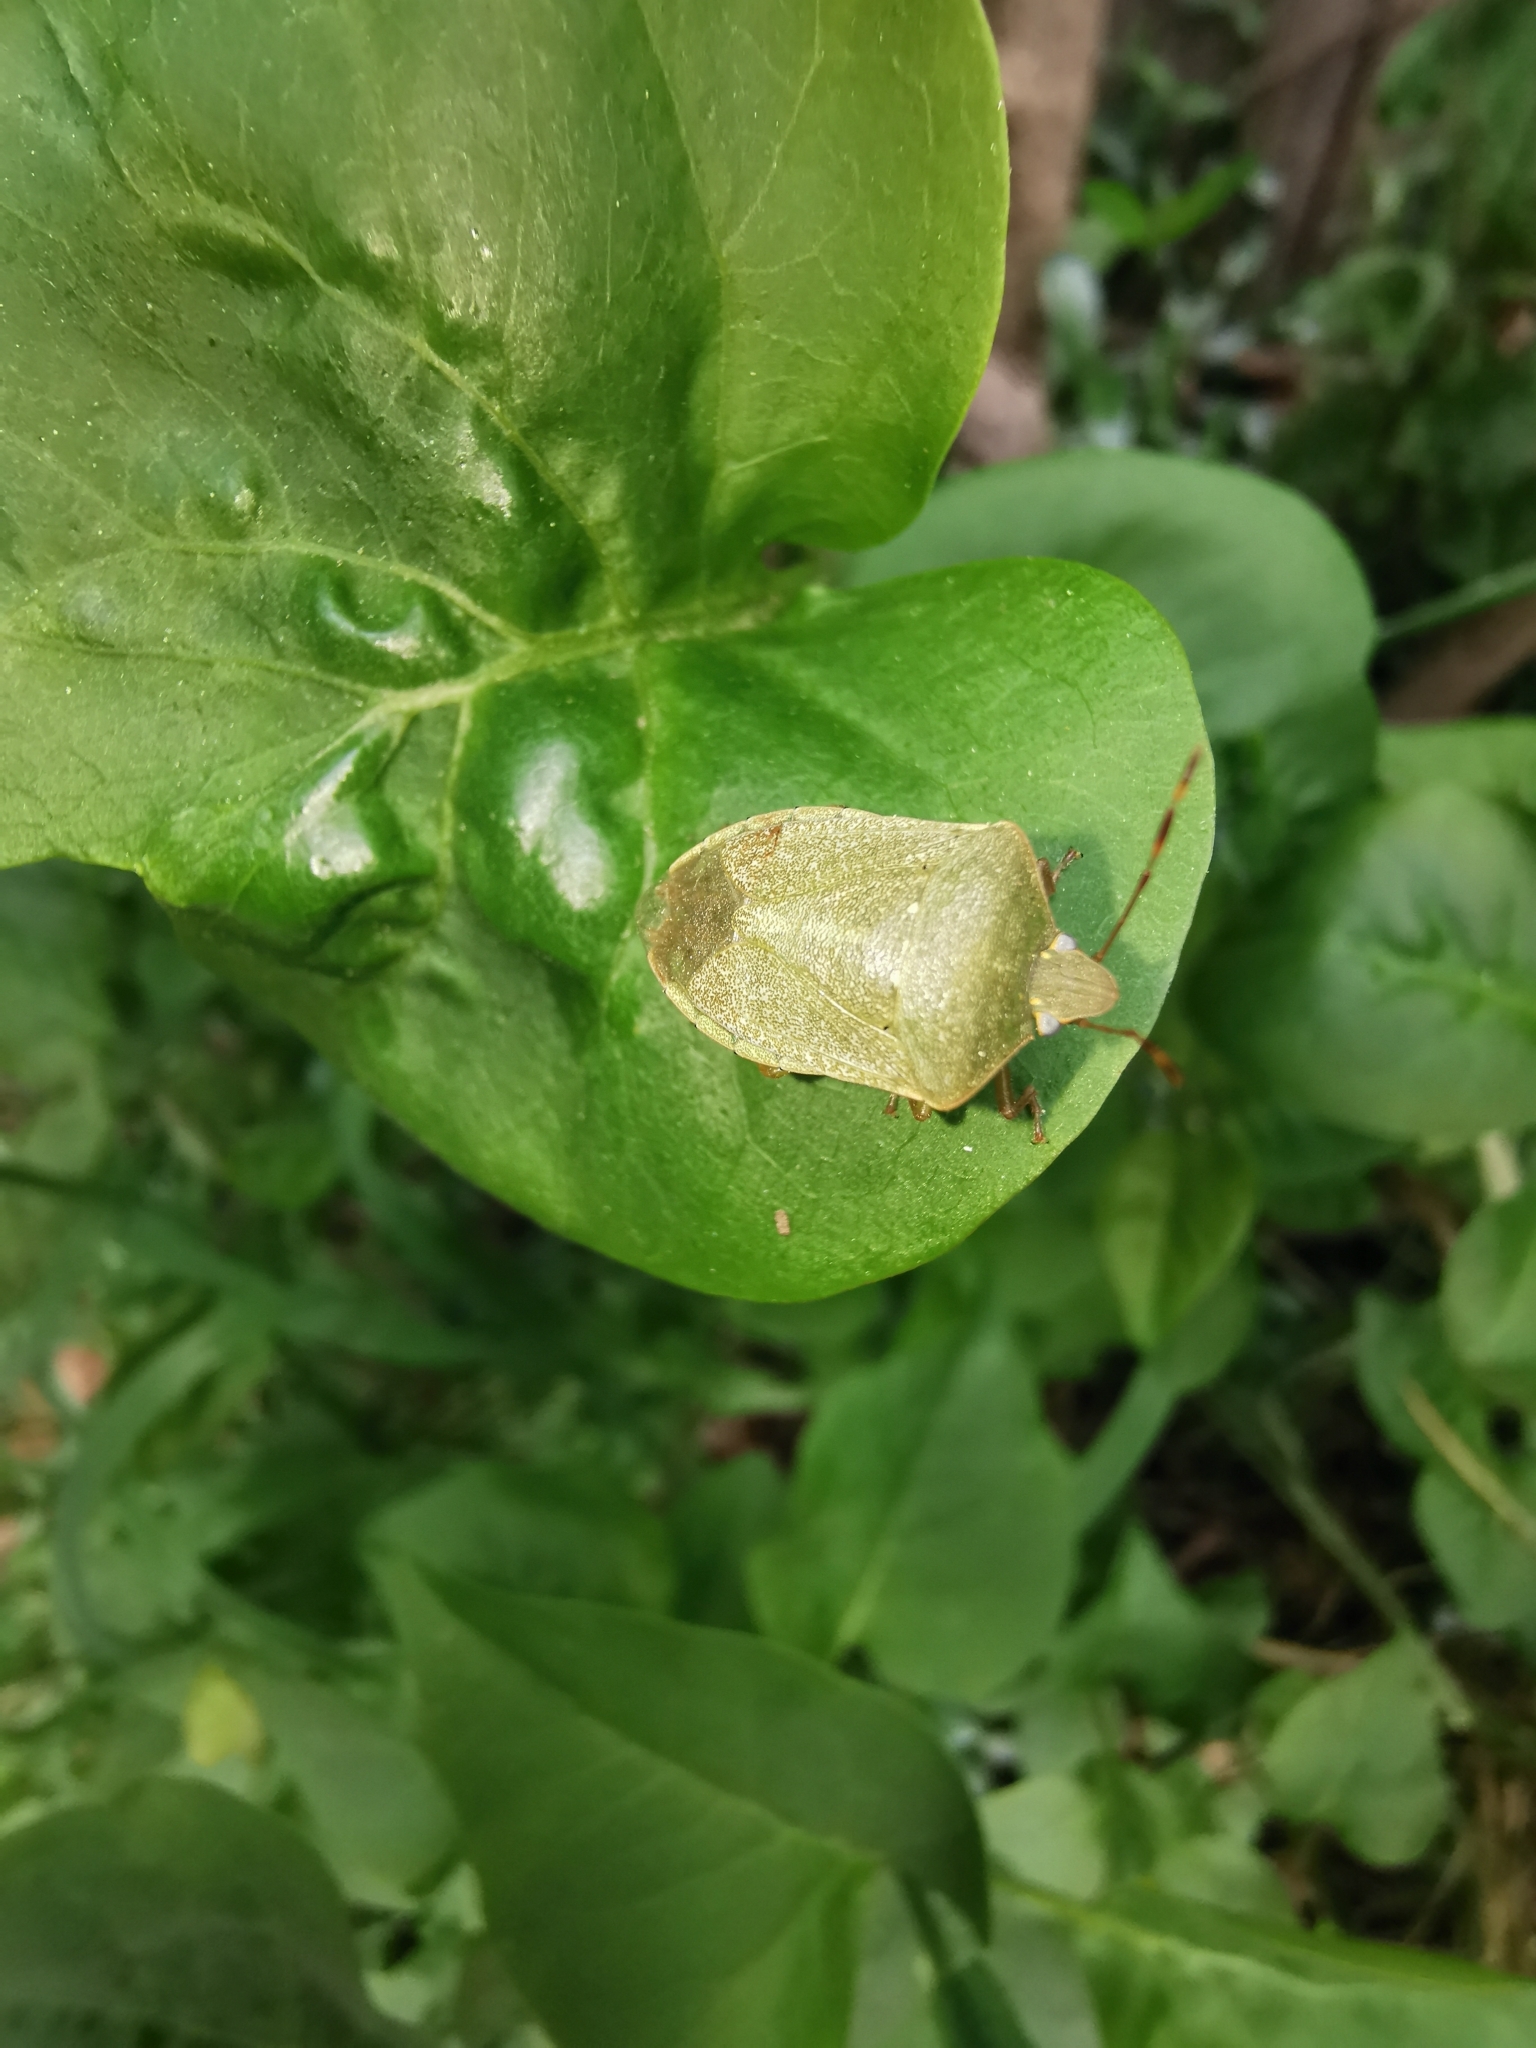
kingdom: Animalia
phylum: Arthropoda
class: Insecta
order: Hemiptera
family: Pentatomidae
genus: Nezara
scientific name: Nezara viridula
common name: Southern green stink bug
